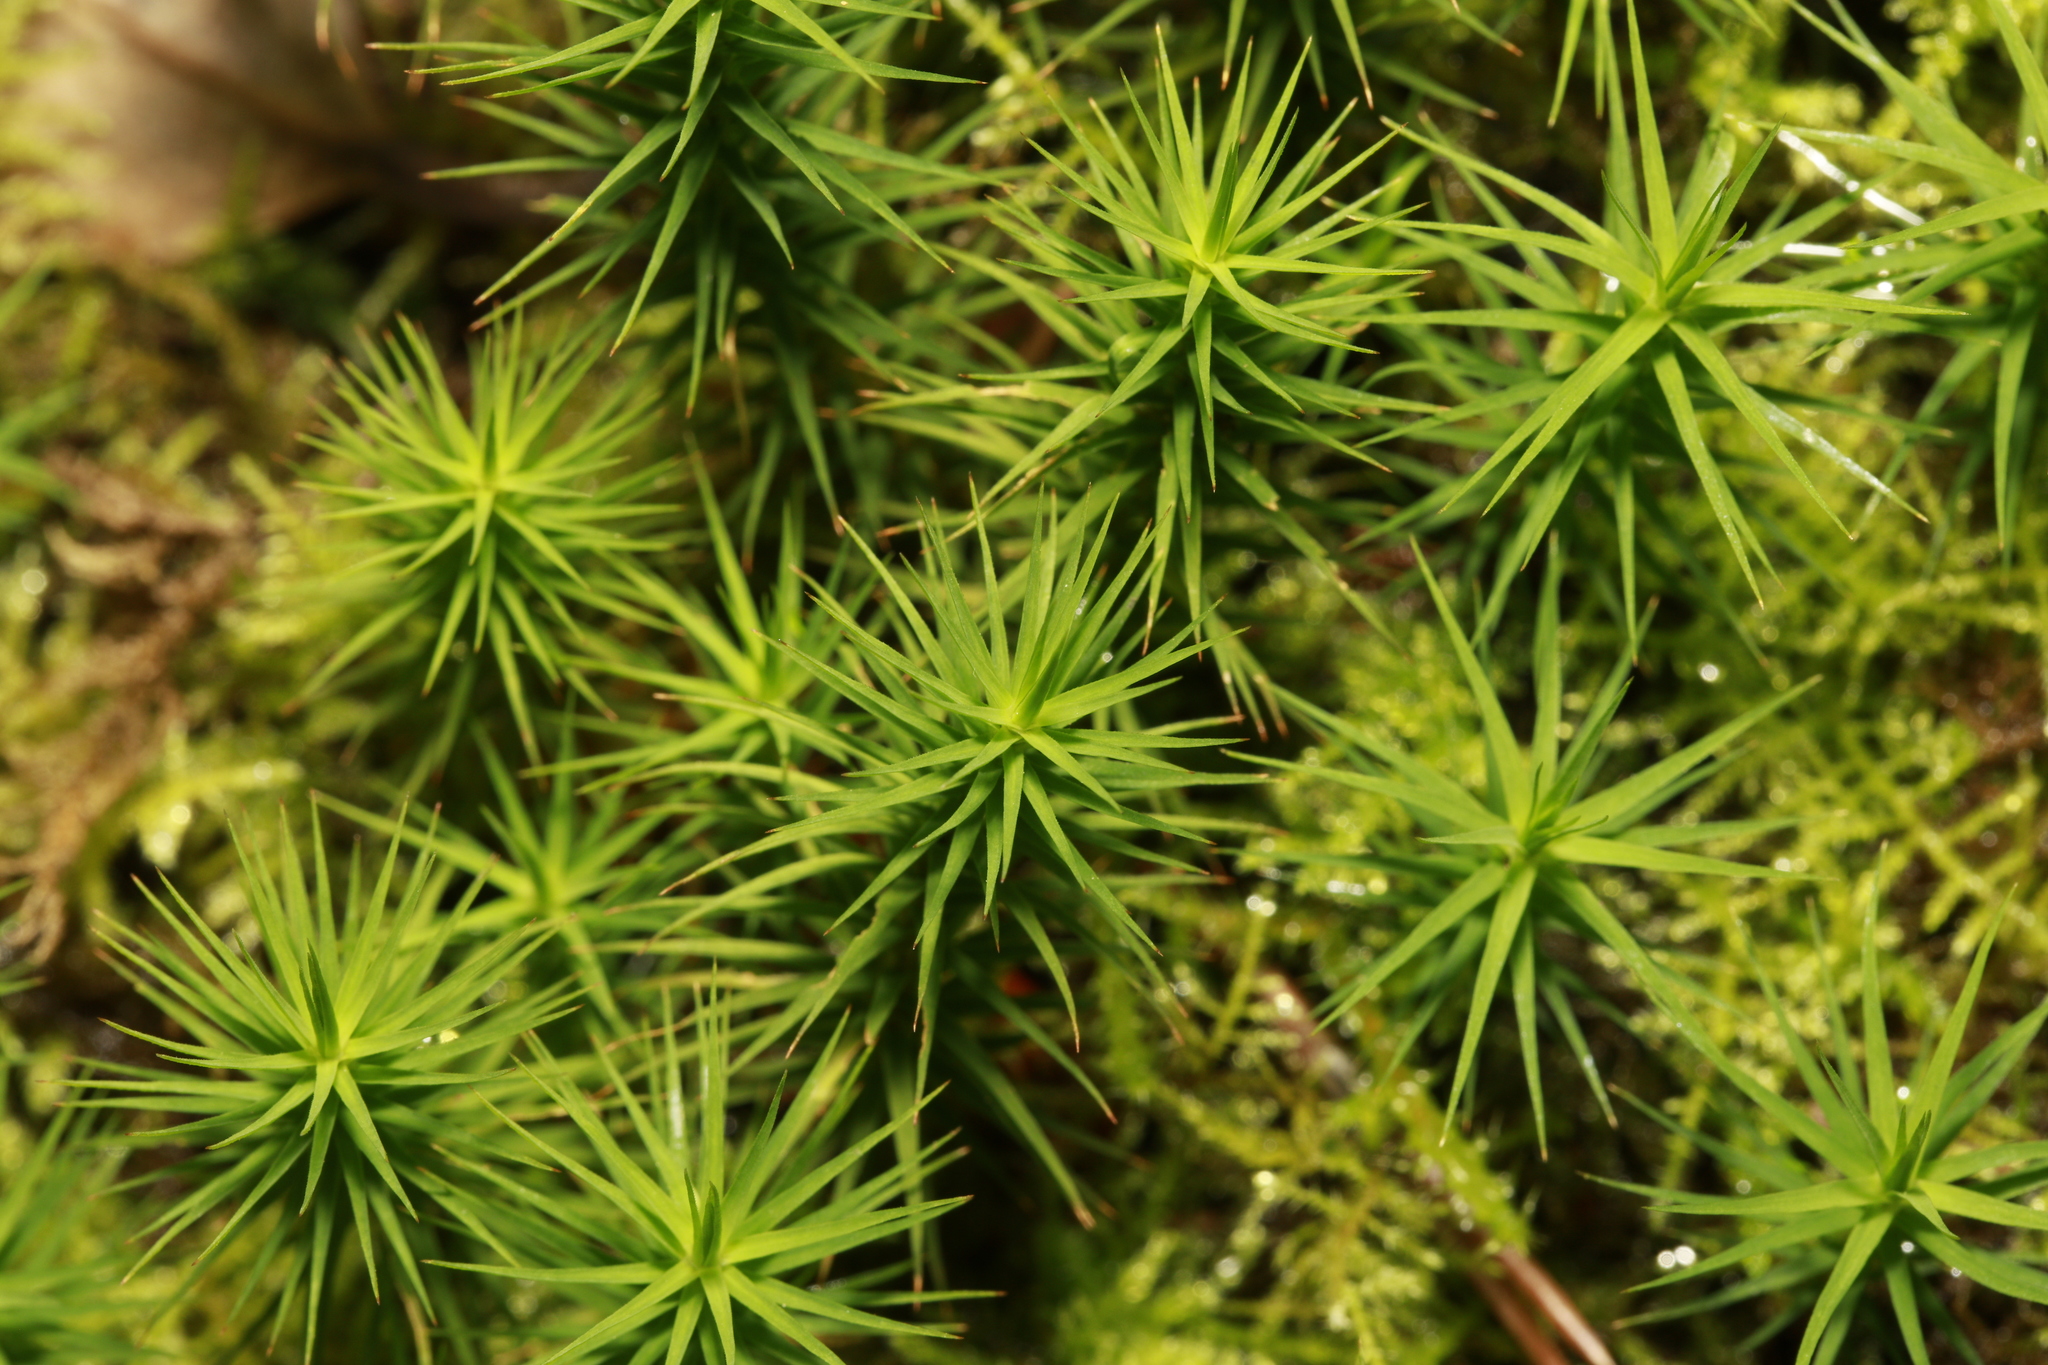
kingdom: Plantae
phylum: Bryophyta
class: Polytrichopsida
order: Polytrichales
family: Polytrichaceae
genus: Polytrichum
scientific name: Polytrichum commune
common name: Common haircap
